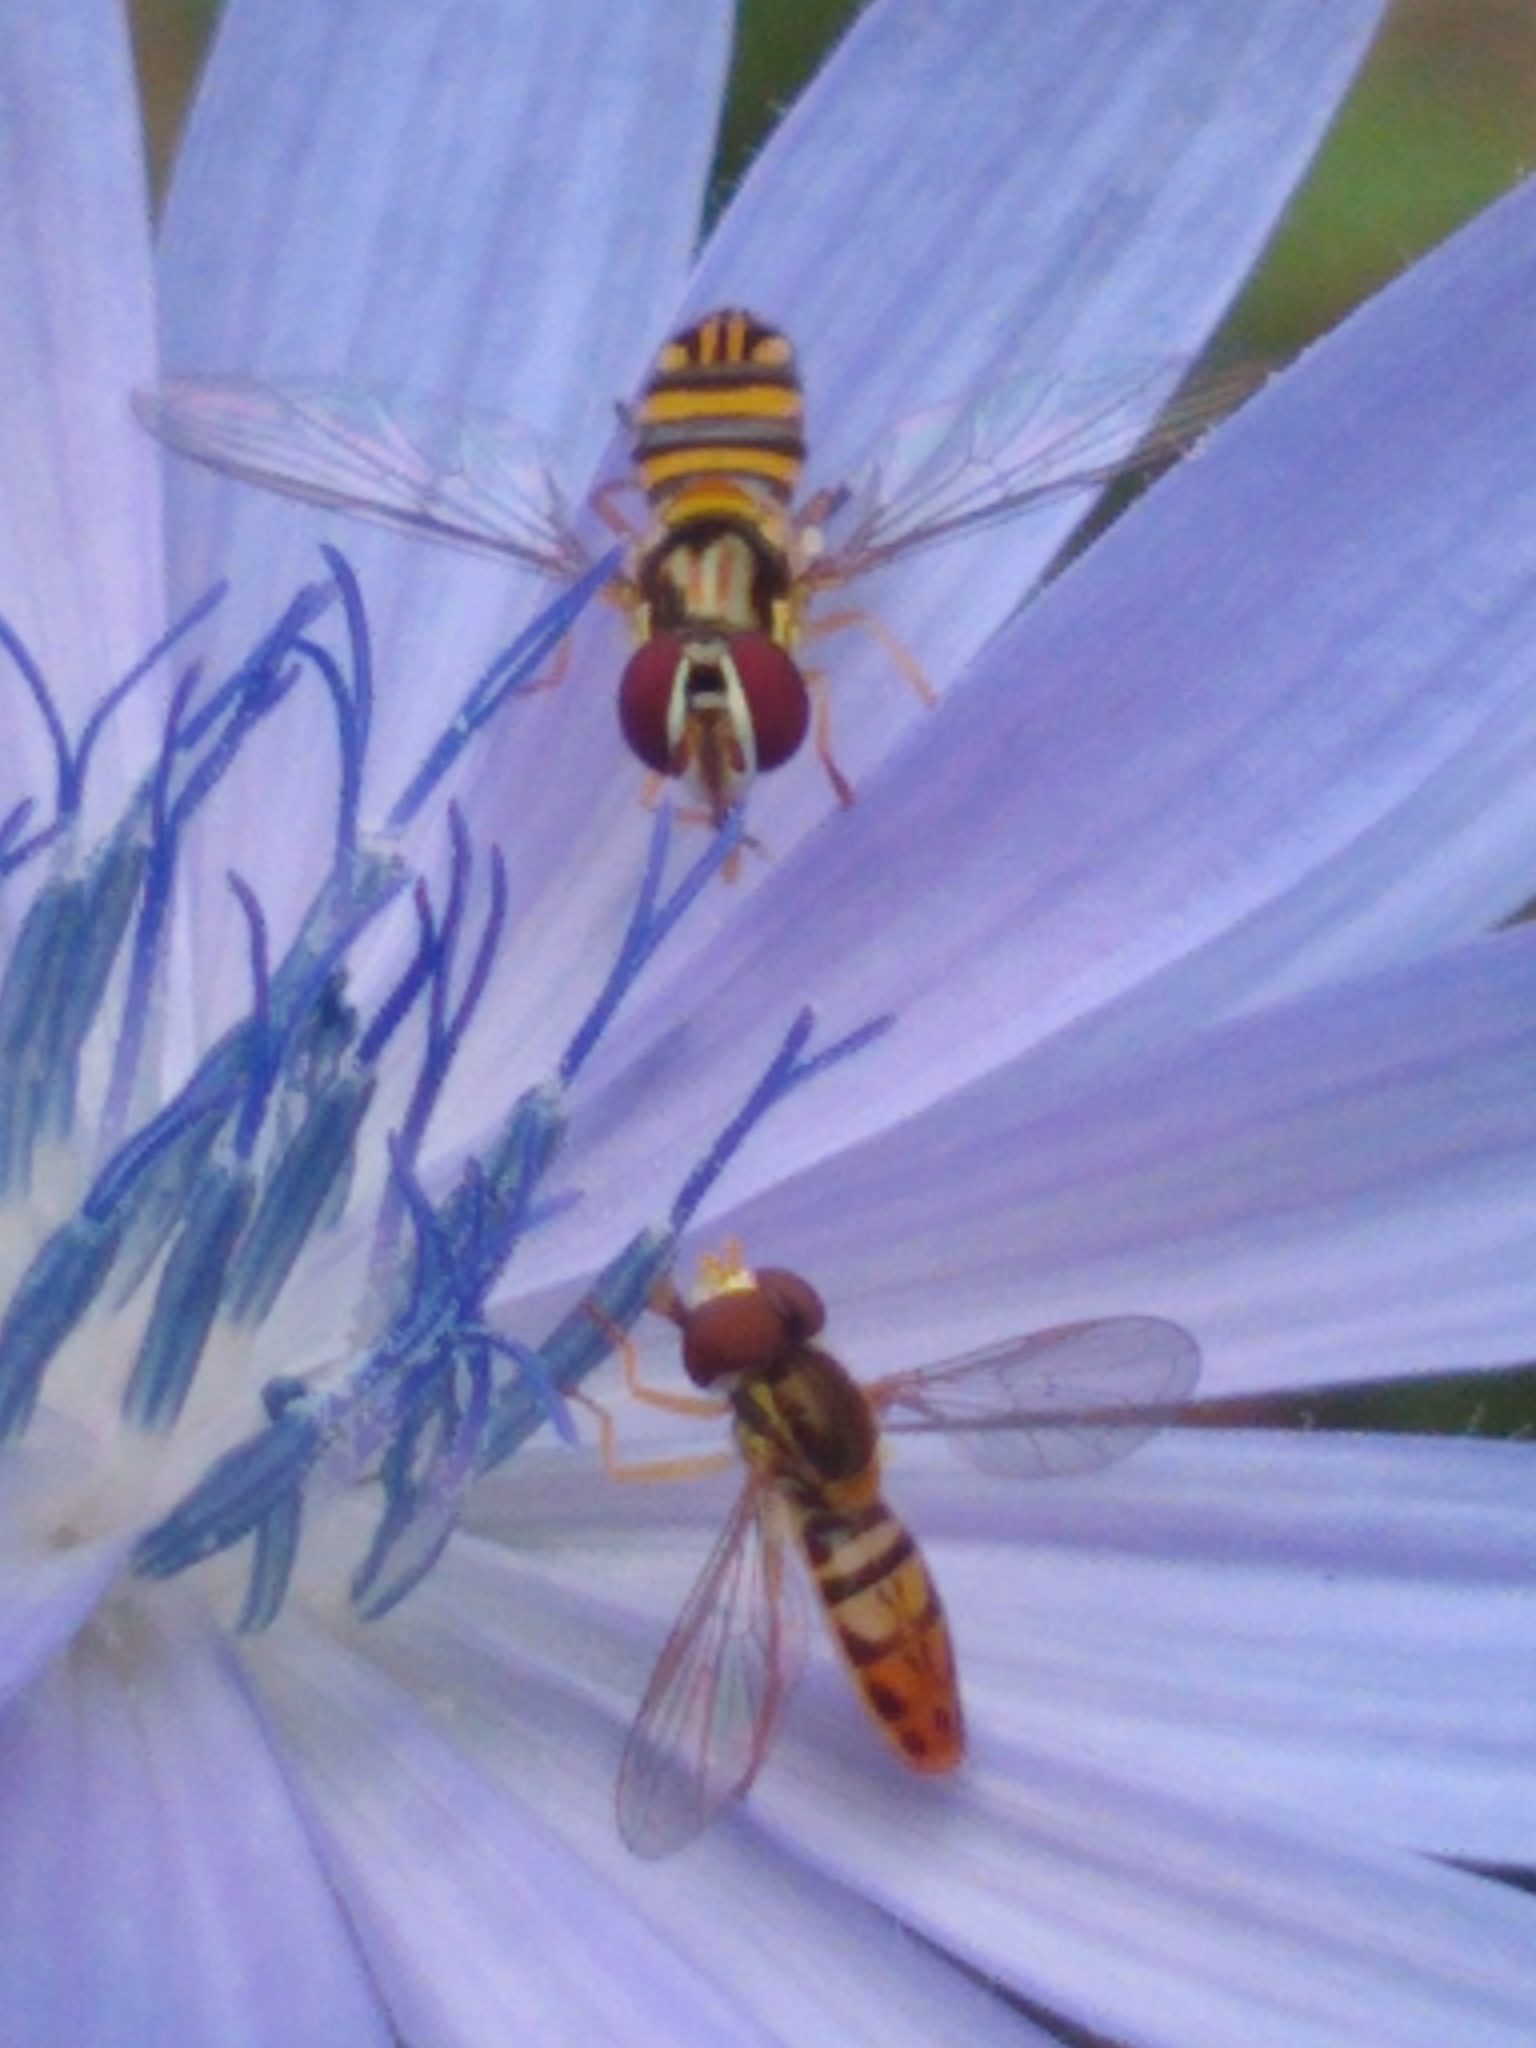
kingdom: Animalia
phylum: Arthropoda
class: Insecta
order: Diptera
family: Syrphidae
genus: Toxomerus
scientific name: Toxomerus marginatus
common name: Syrphid fly
